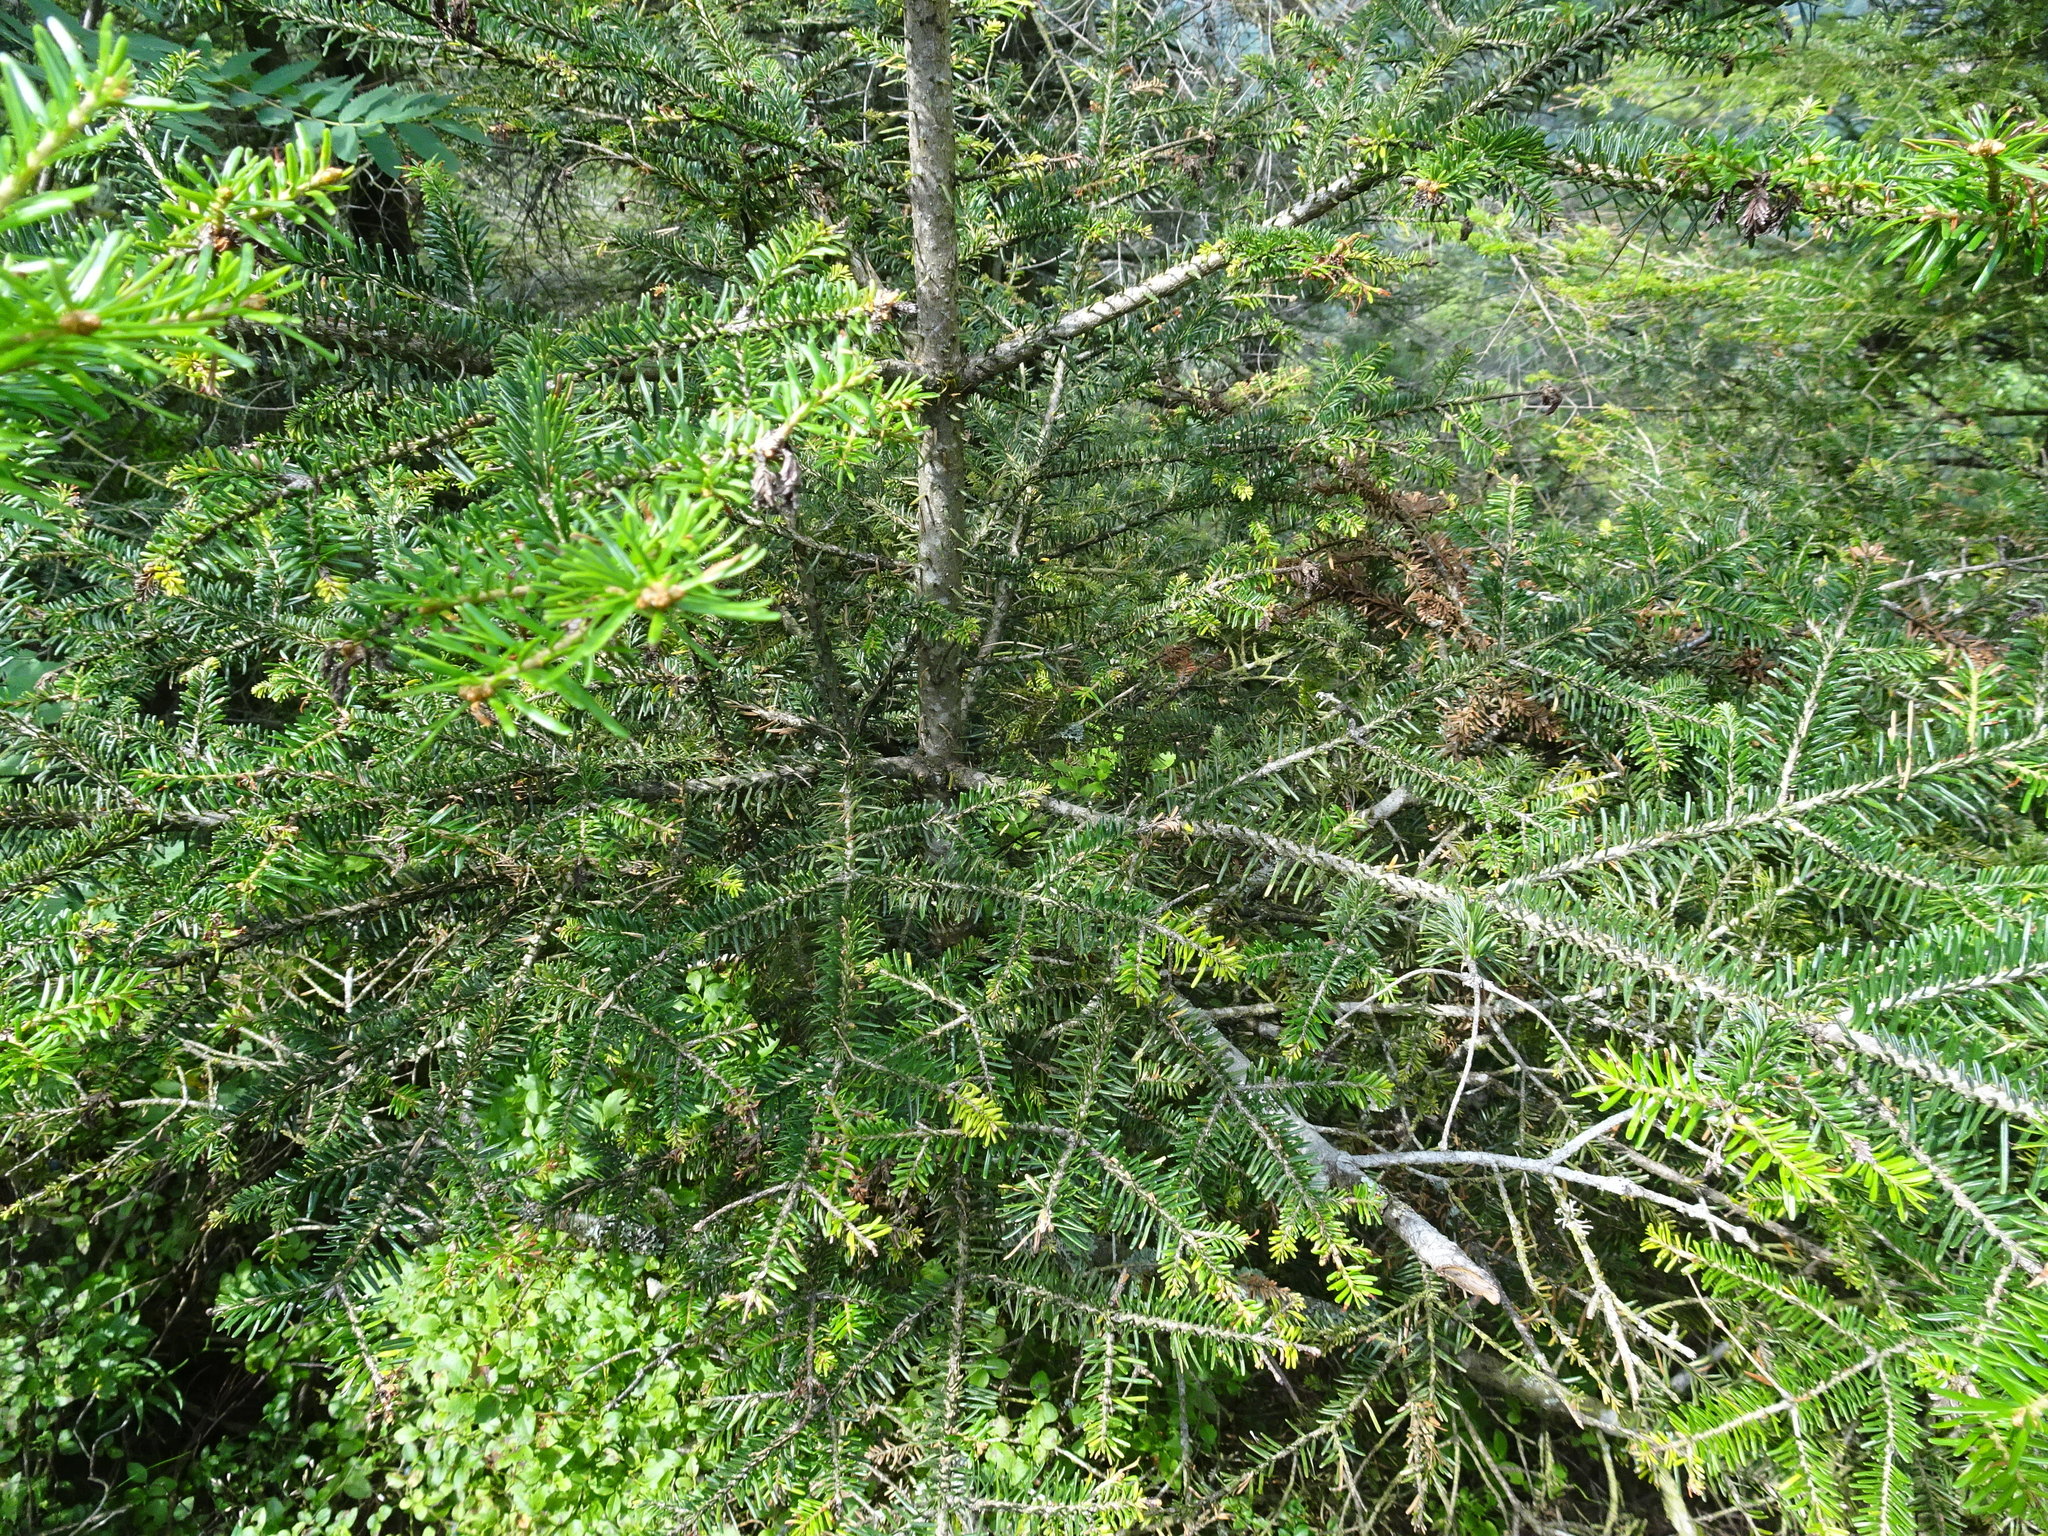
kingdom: Plantae
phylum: Tracheophyta
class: Pinopsida
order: Pinales
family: Pinaceae
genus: Abies
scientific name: Abies alba
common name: Silver fir
